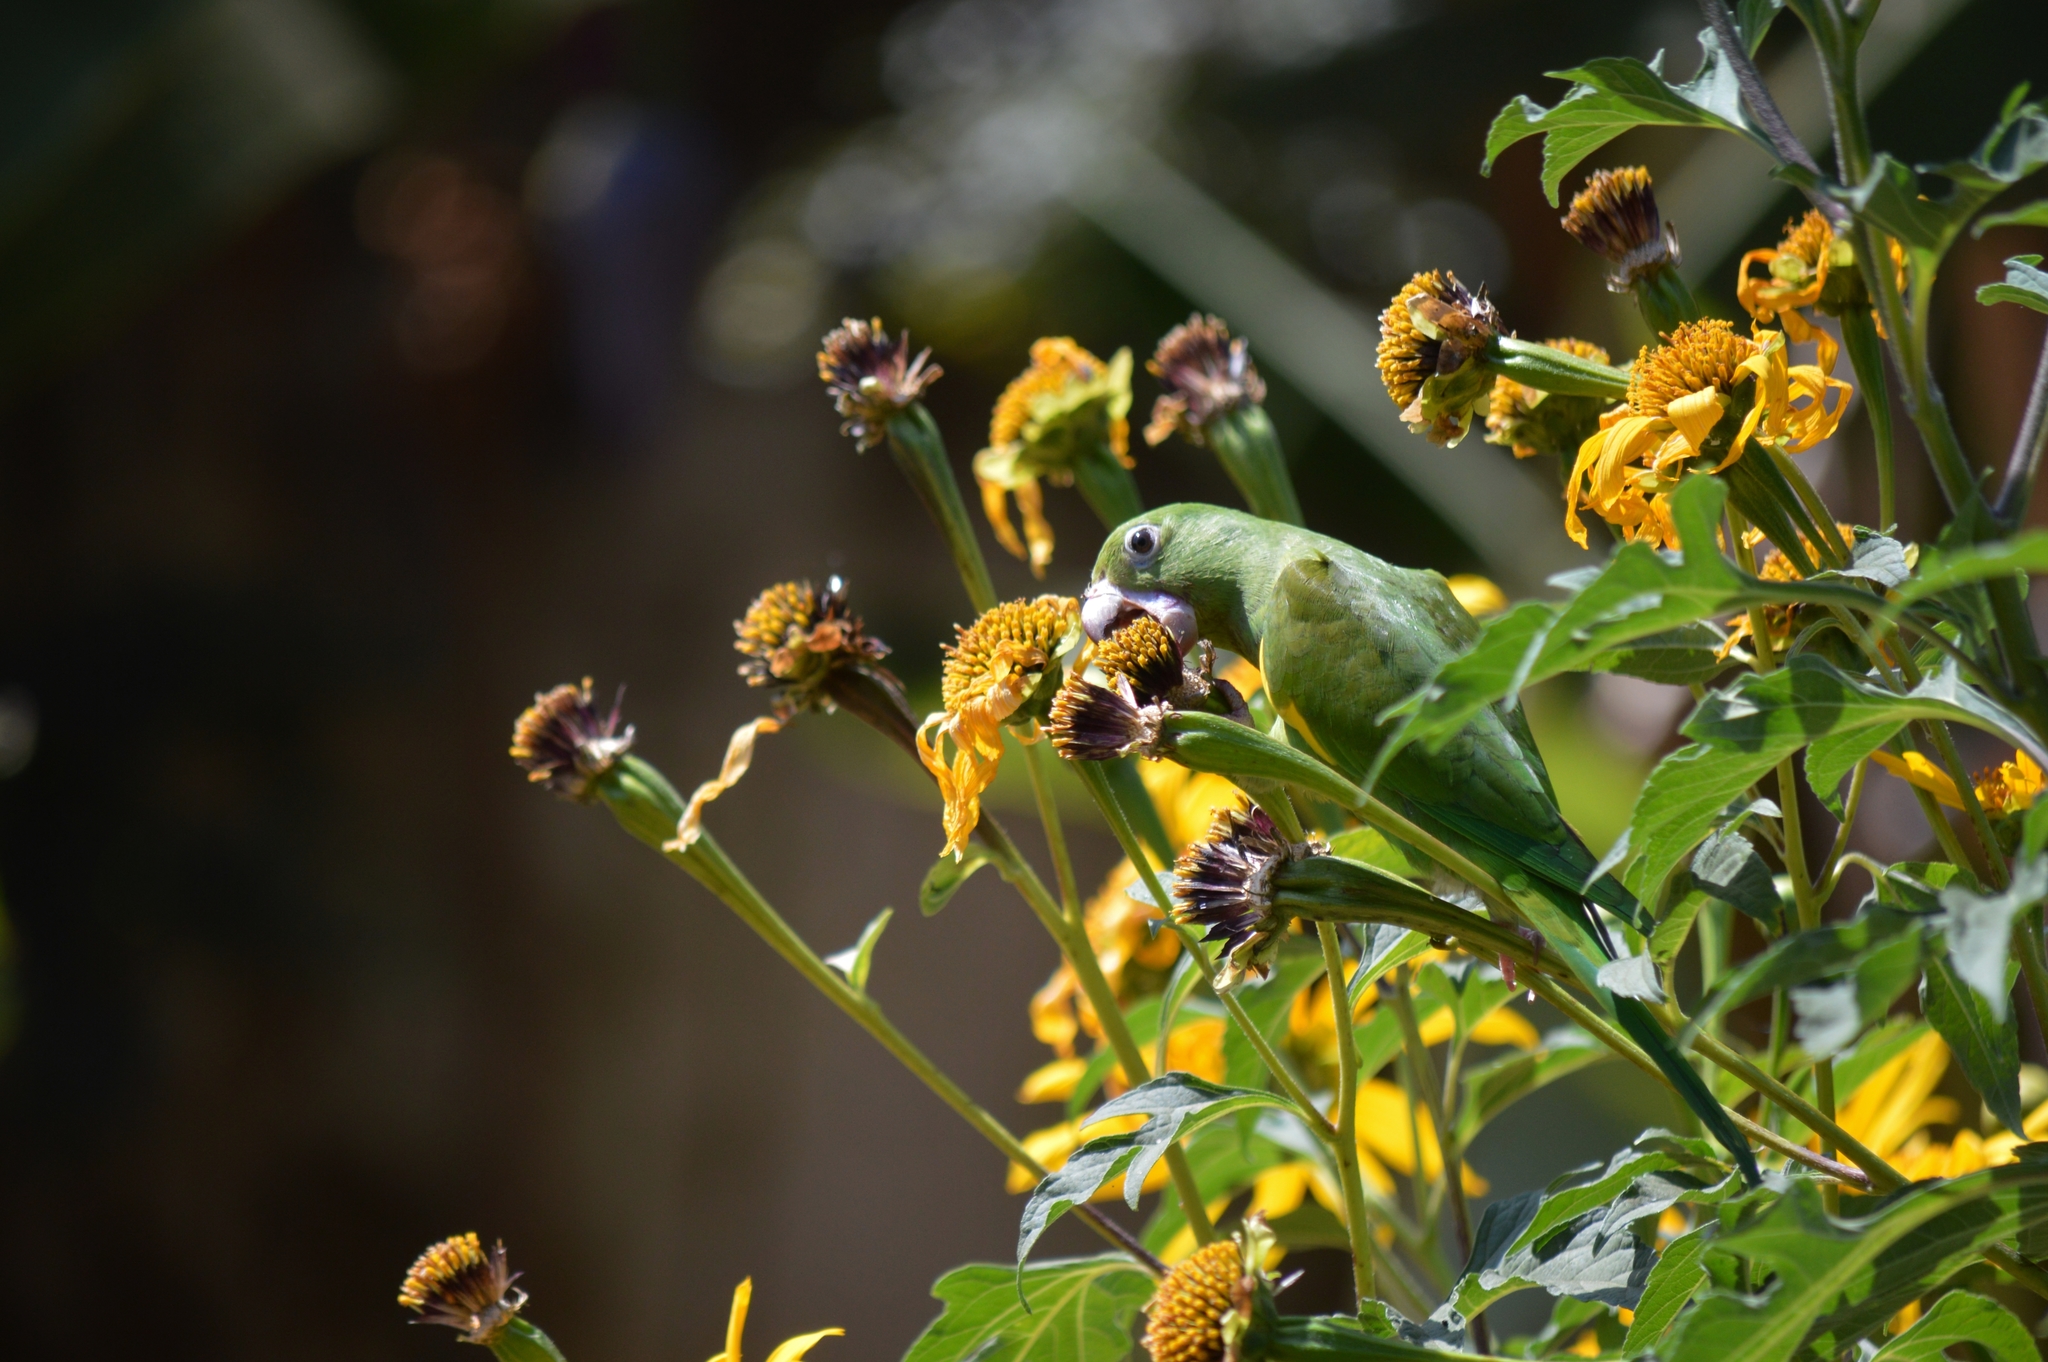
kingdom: Animalia
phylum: Chordata
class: Aves
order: Psittaciformes
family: Psittacidae
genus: Brotogeris
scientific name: Brotogeris chiriri
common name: Yellow-chevroned parakeet
